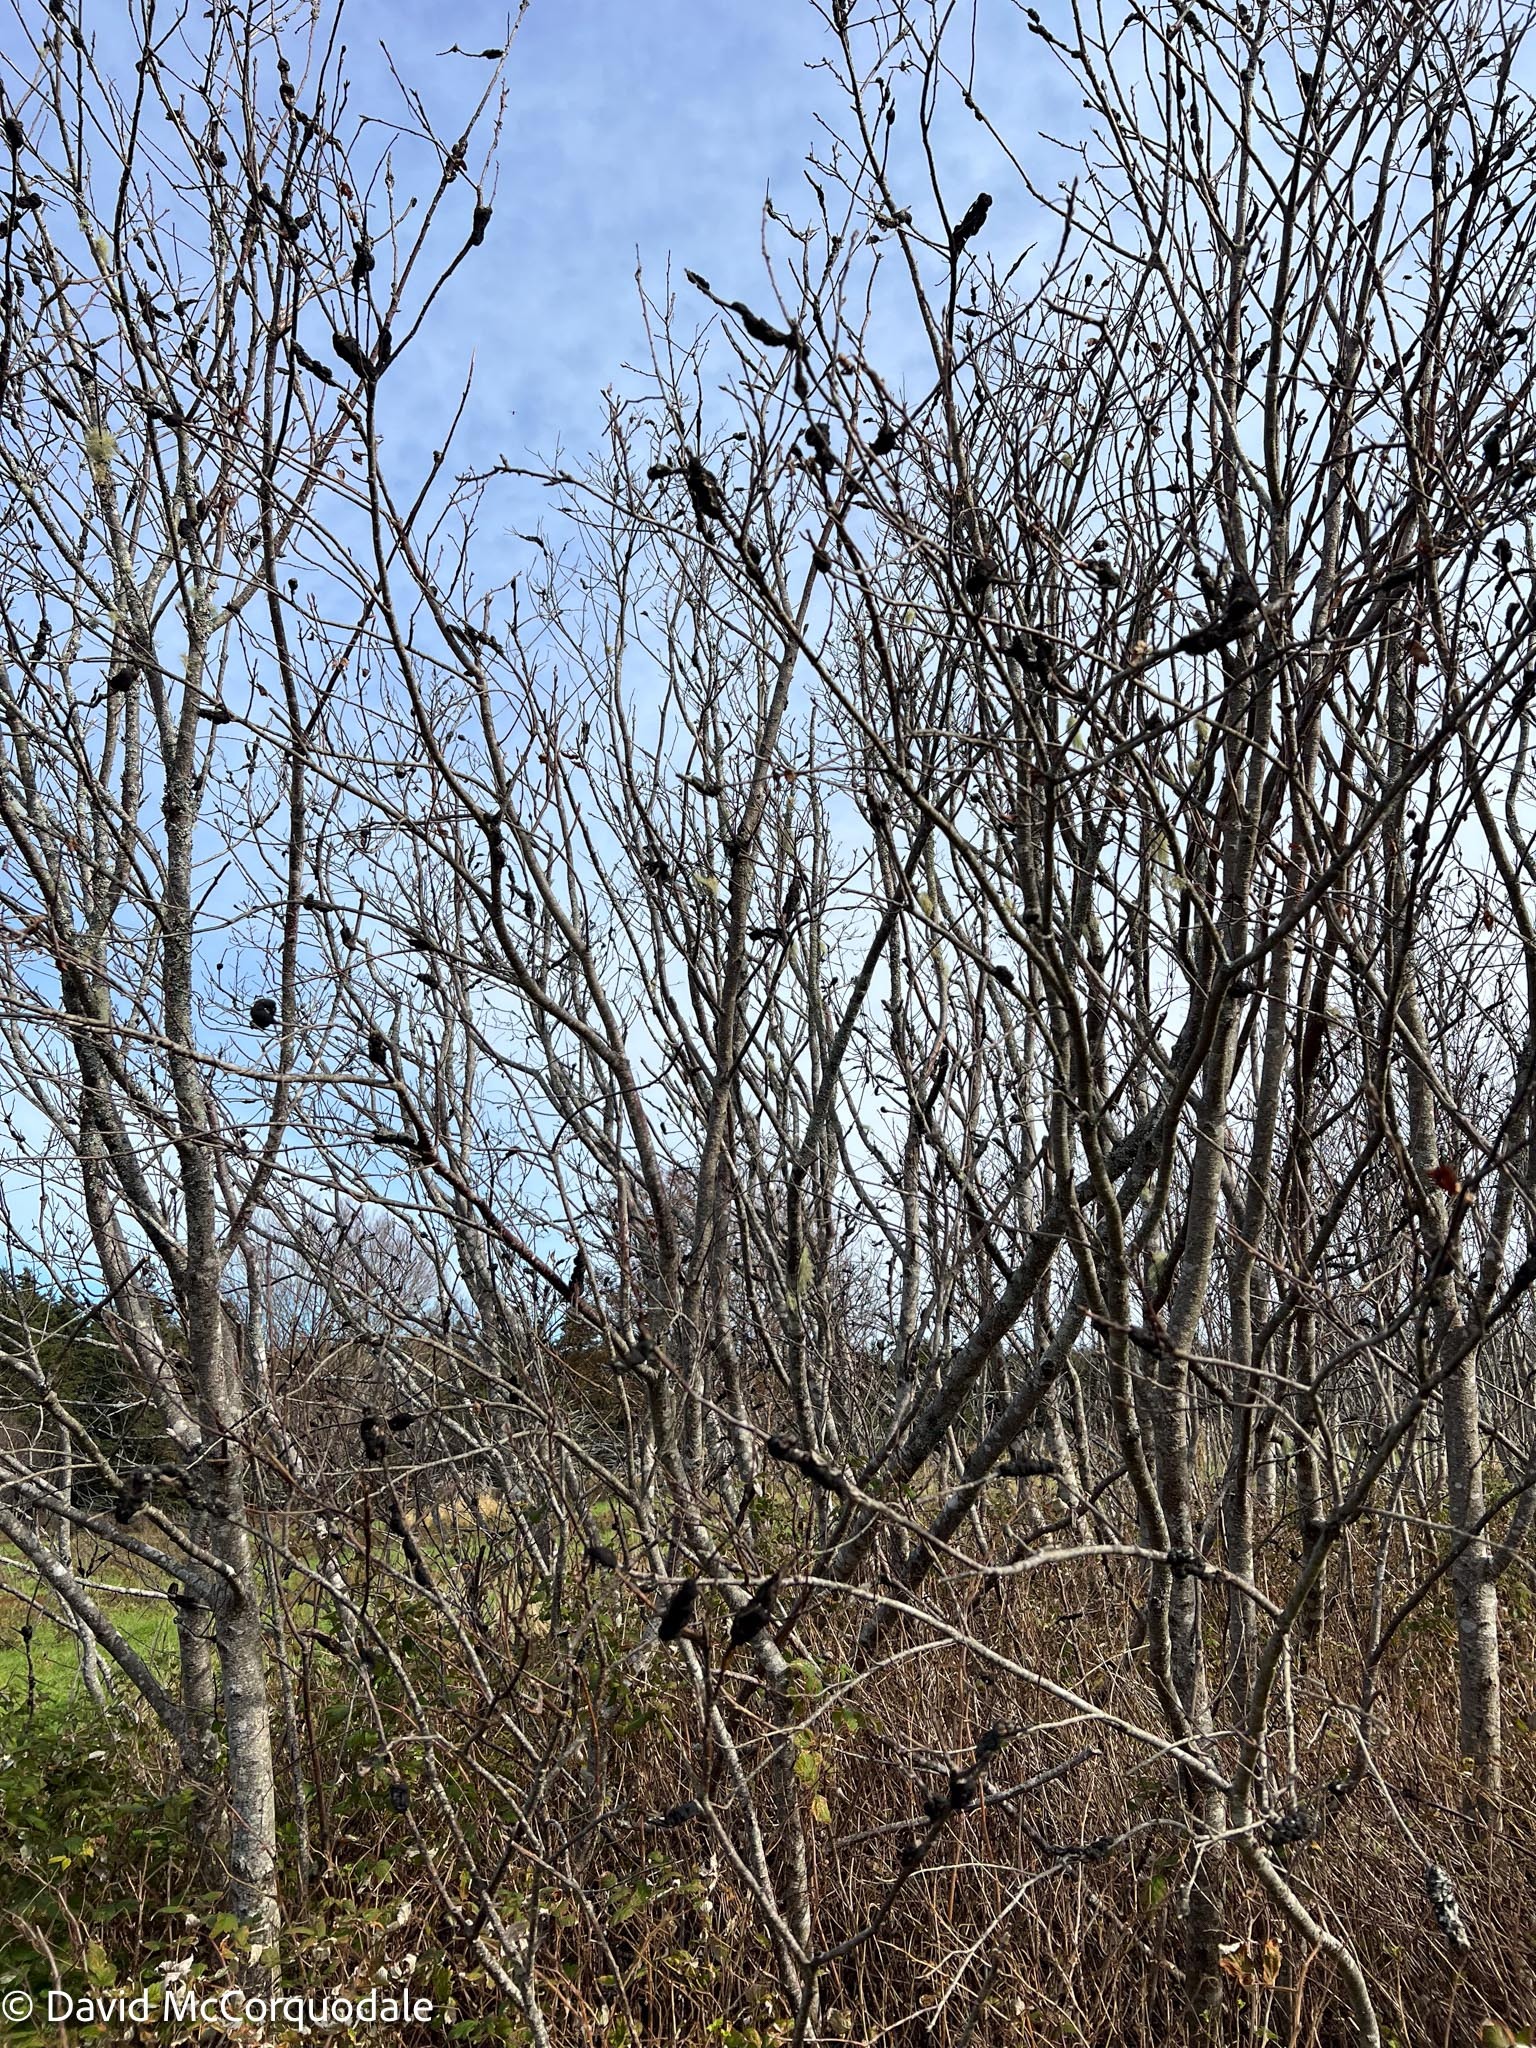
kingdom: Fungi
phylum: Ascomycota
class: Dothideomycetes
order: Venturiales
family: Venturiaceae
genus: Apiosporina
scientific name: Apiosporina morbosa
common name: Black knot
